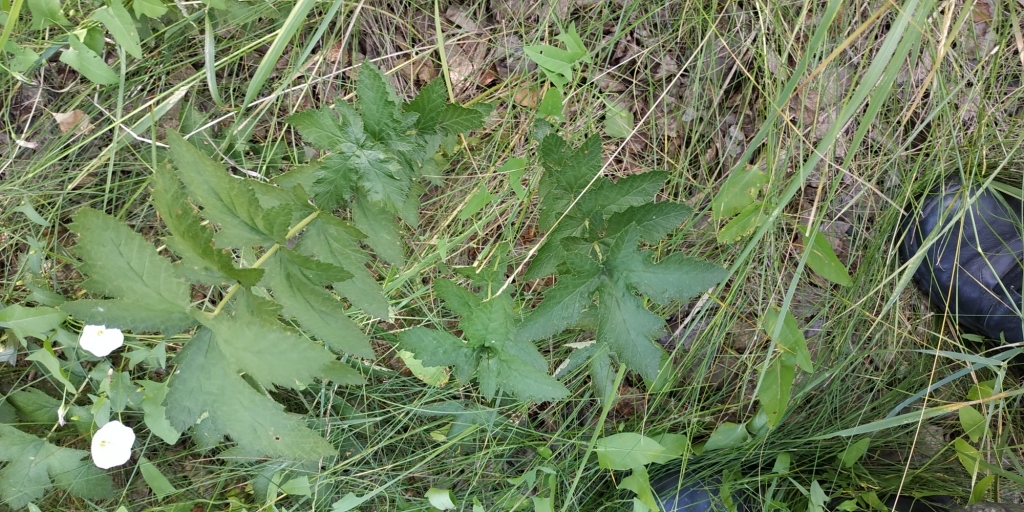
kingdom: Plantae
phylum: Tracheophyta
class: Magnoliopsida
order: Rosales
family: Rosaceae
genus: Filipendula
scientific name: Filipendula ulmaria
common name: Meadowsweet
